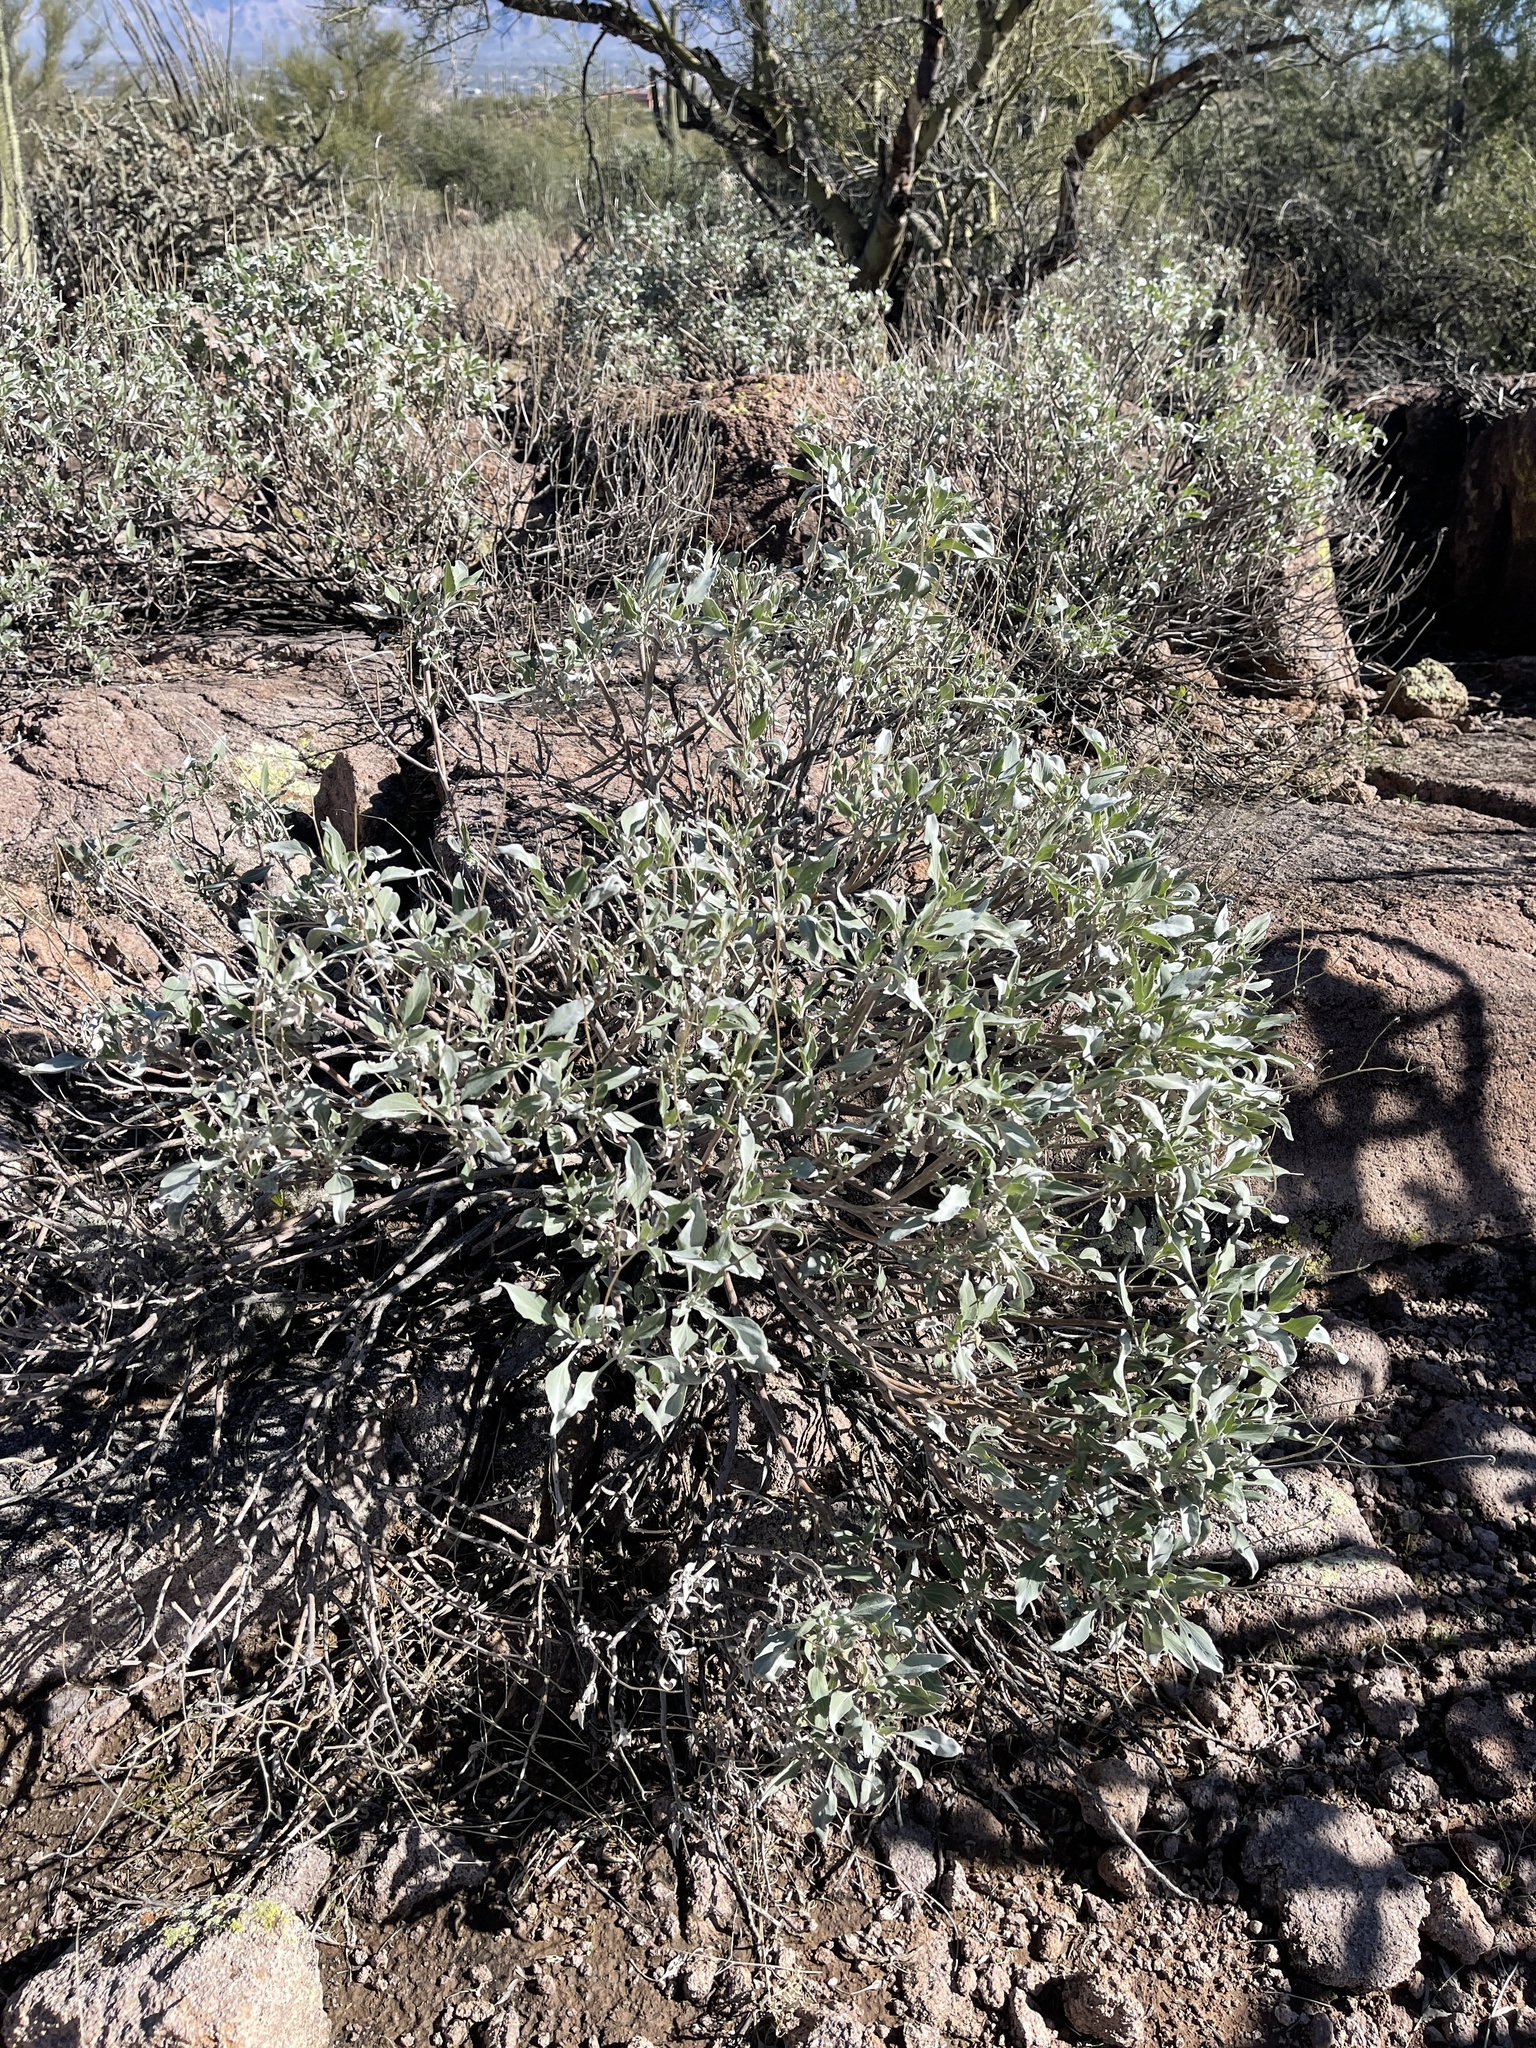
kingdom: Plantae
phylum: Tracheophyta
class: Magnoliopsida
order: Asterales
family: Asteraceae
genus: Encelia
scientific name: Encelia farinosa
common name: Brittlebush
